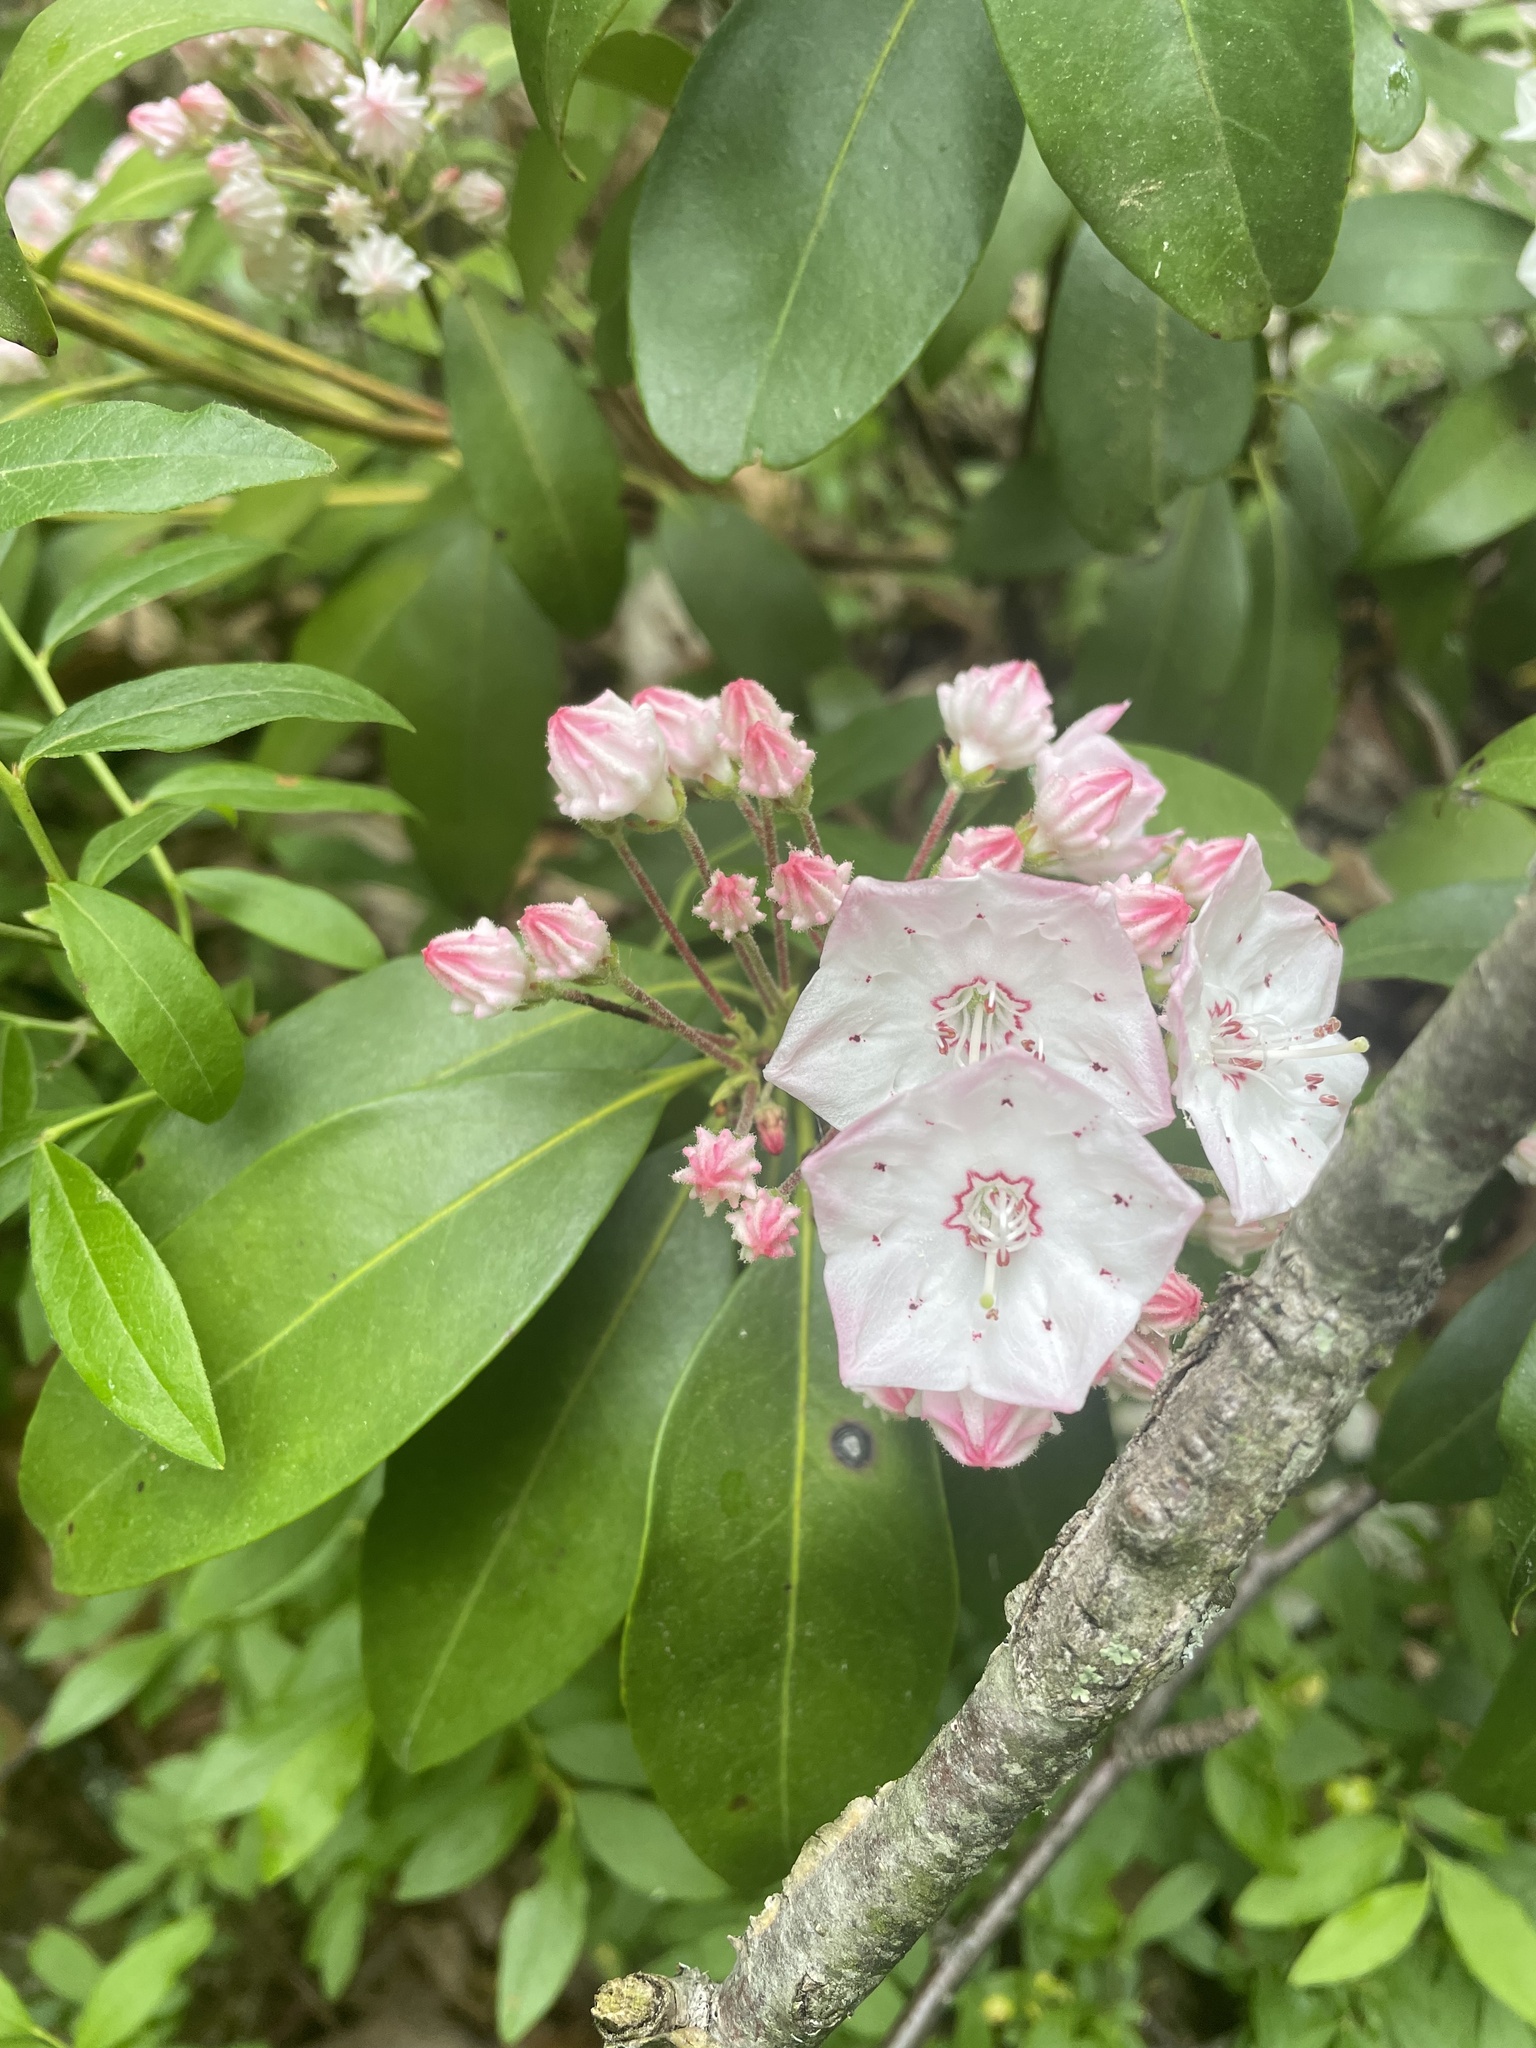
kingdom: Plantae
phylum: Tracheophyta
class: Magnoliopsida
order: Ericales
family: Ericaceae
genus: Kalmia
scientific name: Kalmia latifolia
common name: Mountain-laurel
